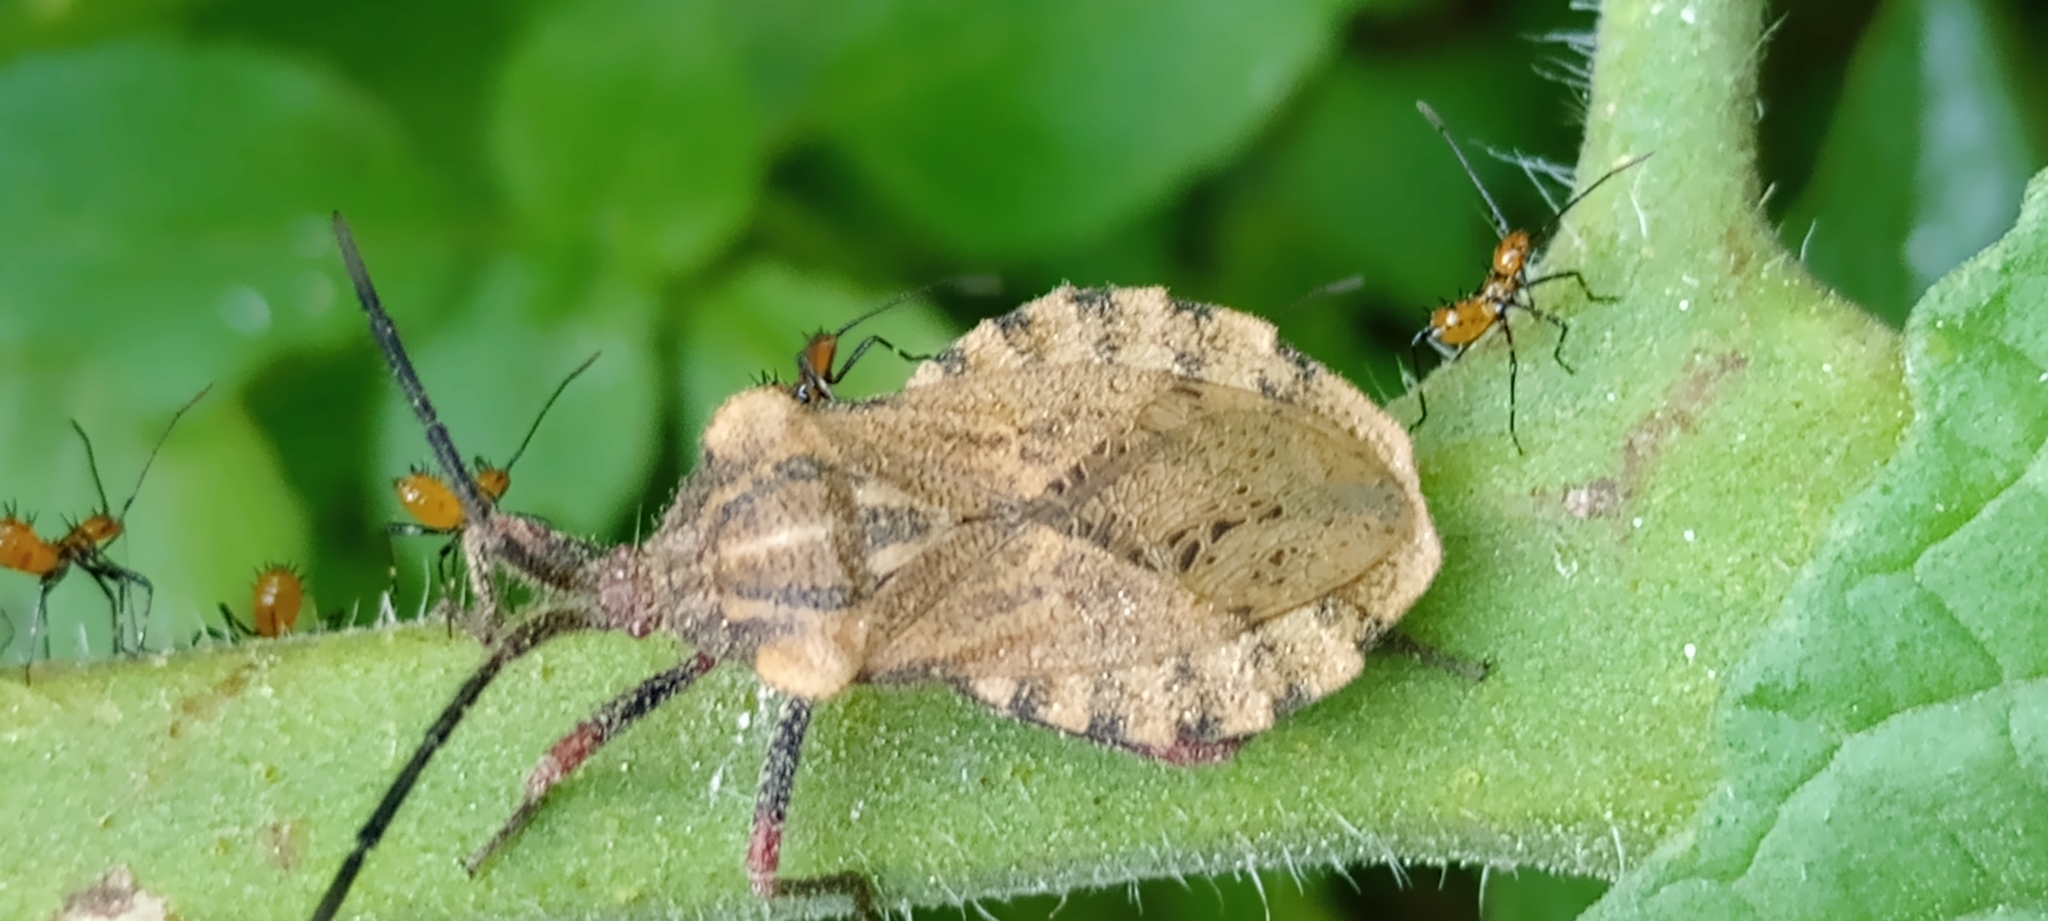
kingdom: Animalia
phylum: Arthropoda
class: Insecta
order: Hemiptera
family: Coreidae
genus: Spartocera
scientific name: Spartocera fusca
